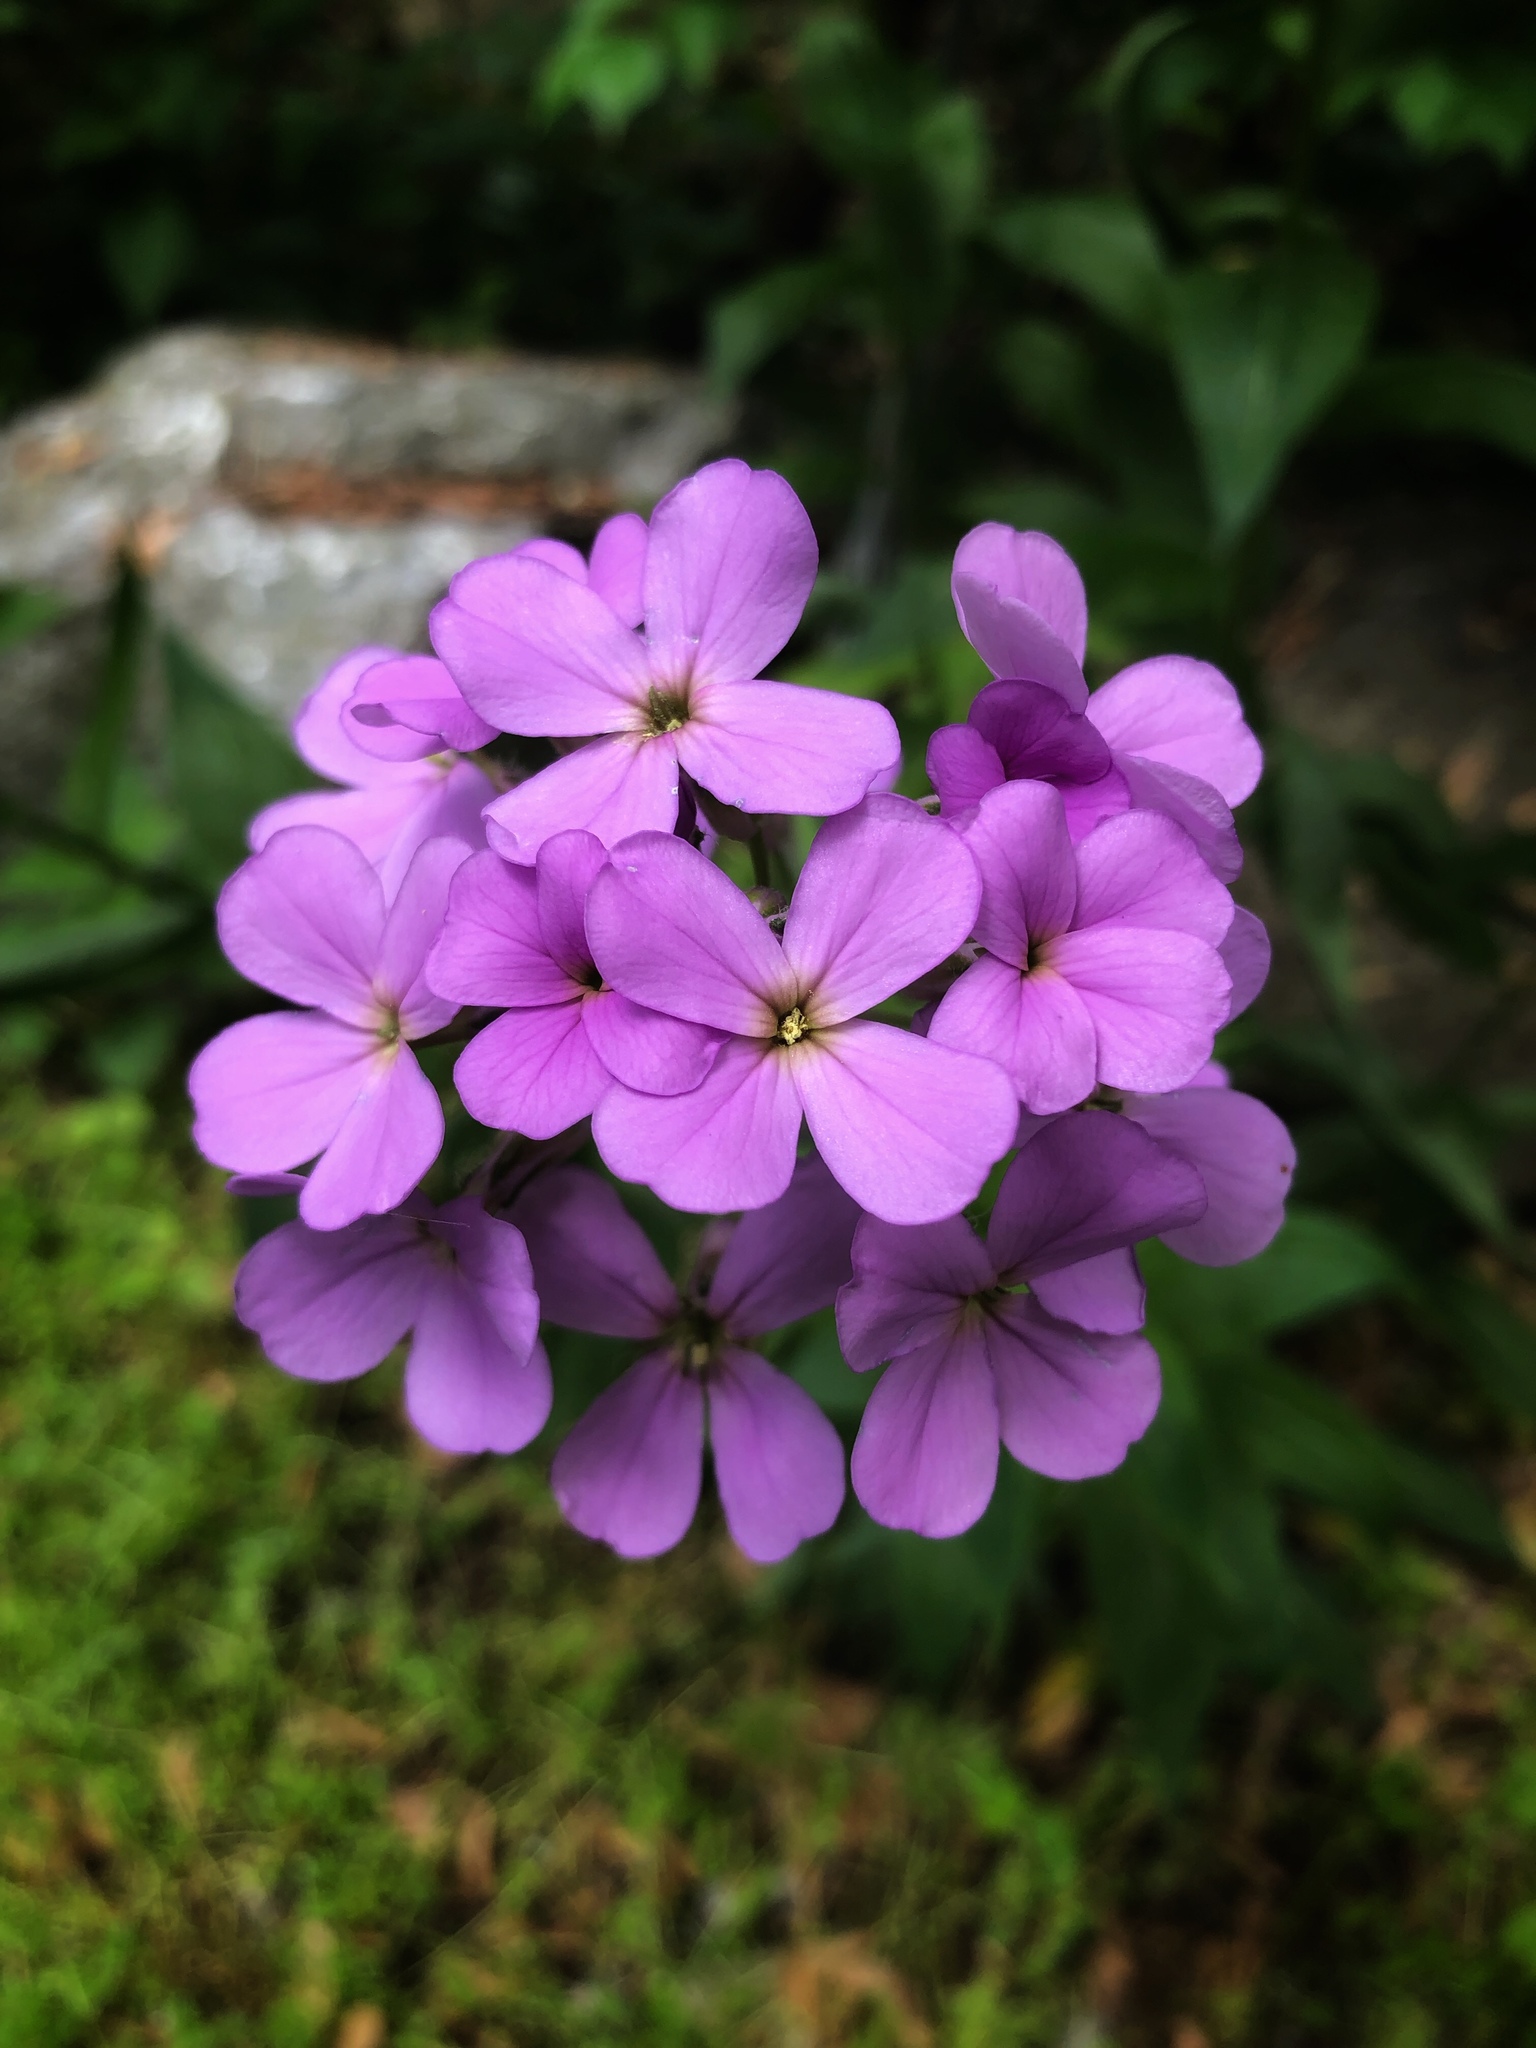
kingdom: Plantae
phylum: Tracheophyta
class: Magnoliopsida
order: Brassicales
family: Brassicaceae
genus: Hesperis
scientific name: Hesperis matronalis
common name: Dame's-violet
